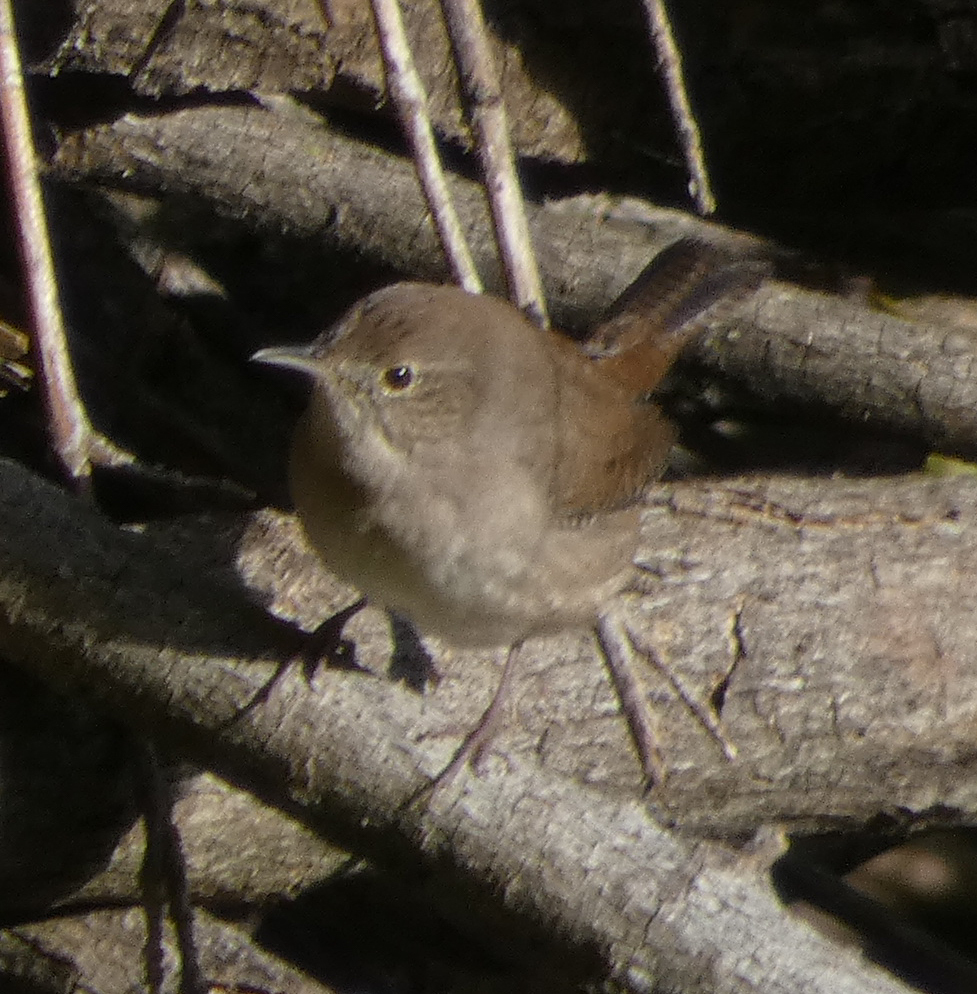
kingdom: Animalia
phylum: Chordata
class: Aves
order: Passeriformes
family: Troglodytidae
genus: Troglodytes
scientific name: Troglodytes aedon
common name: House wren
